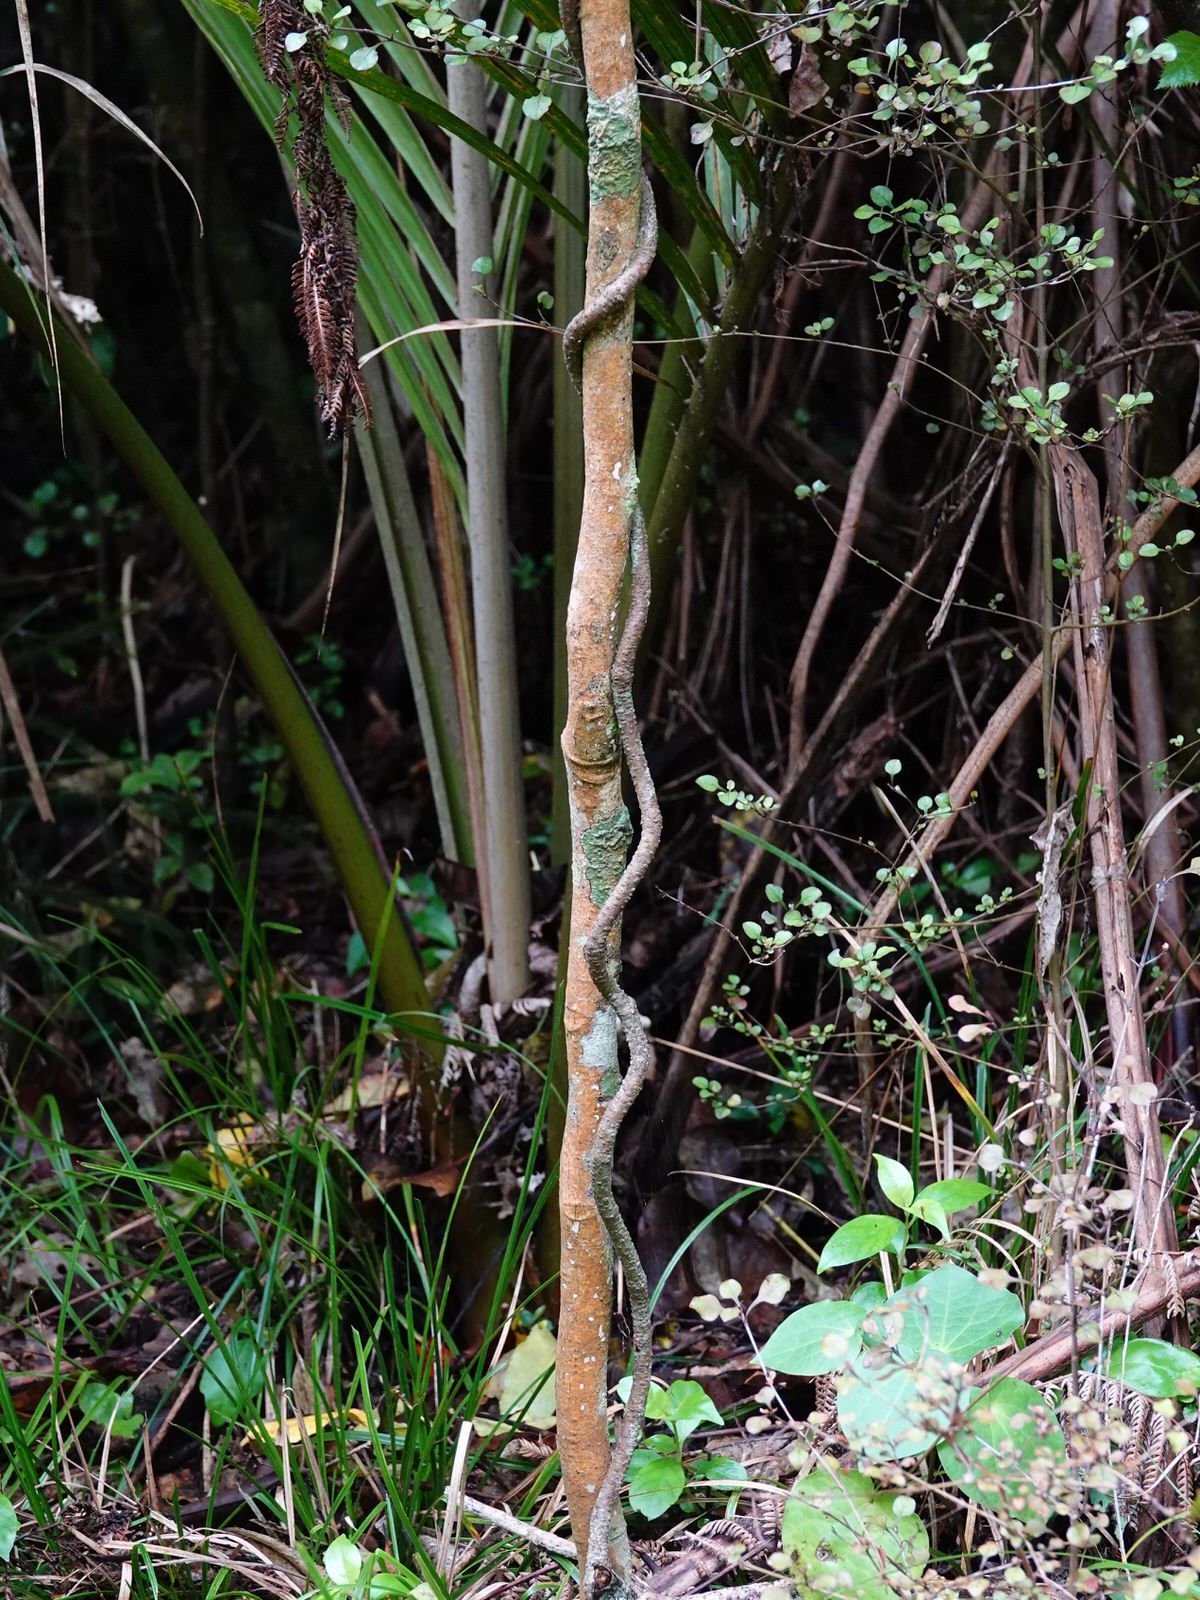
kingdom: Plantae
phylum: Tracheophyta
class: Magnoliopsida
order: Gentianales
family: Apocynaceae
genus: Parsonsia
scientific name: Parsonsia capsularis
